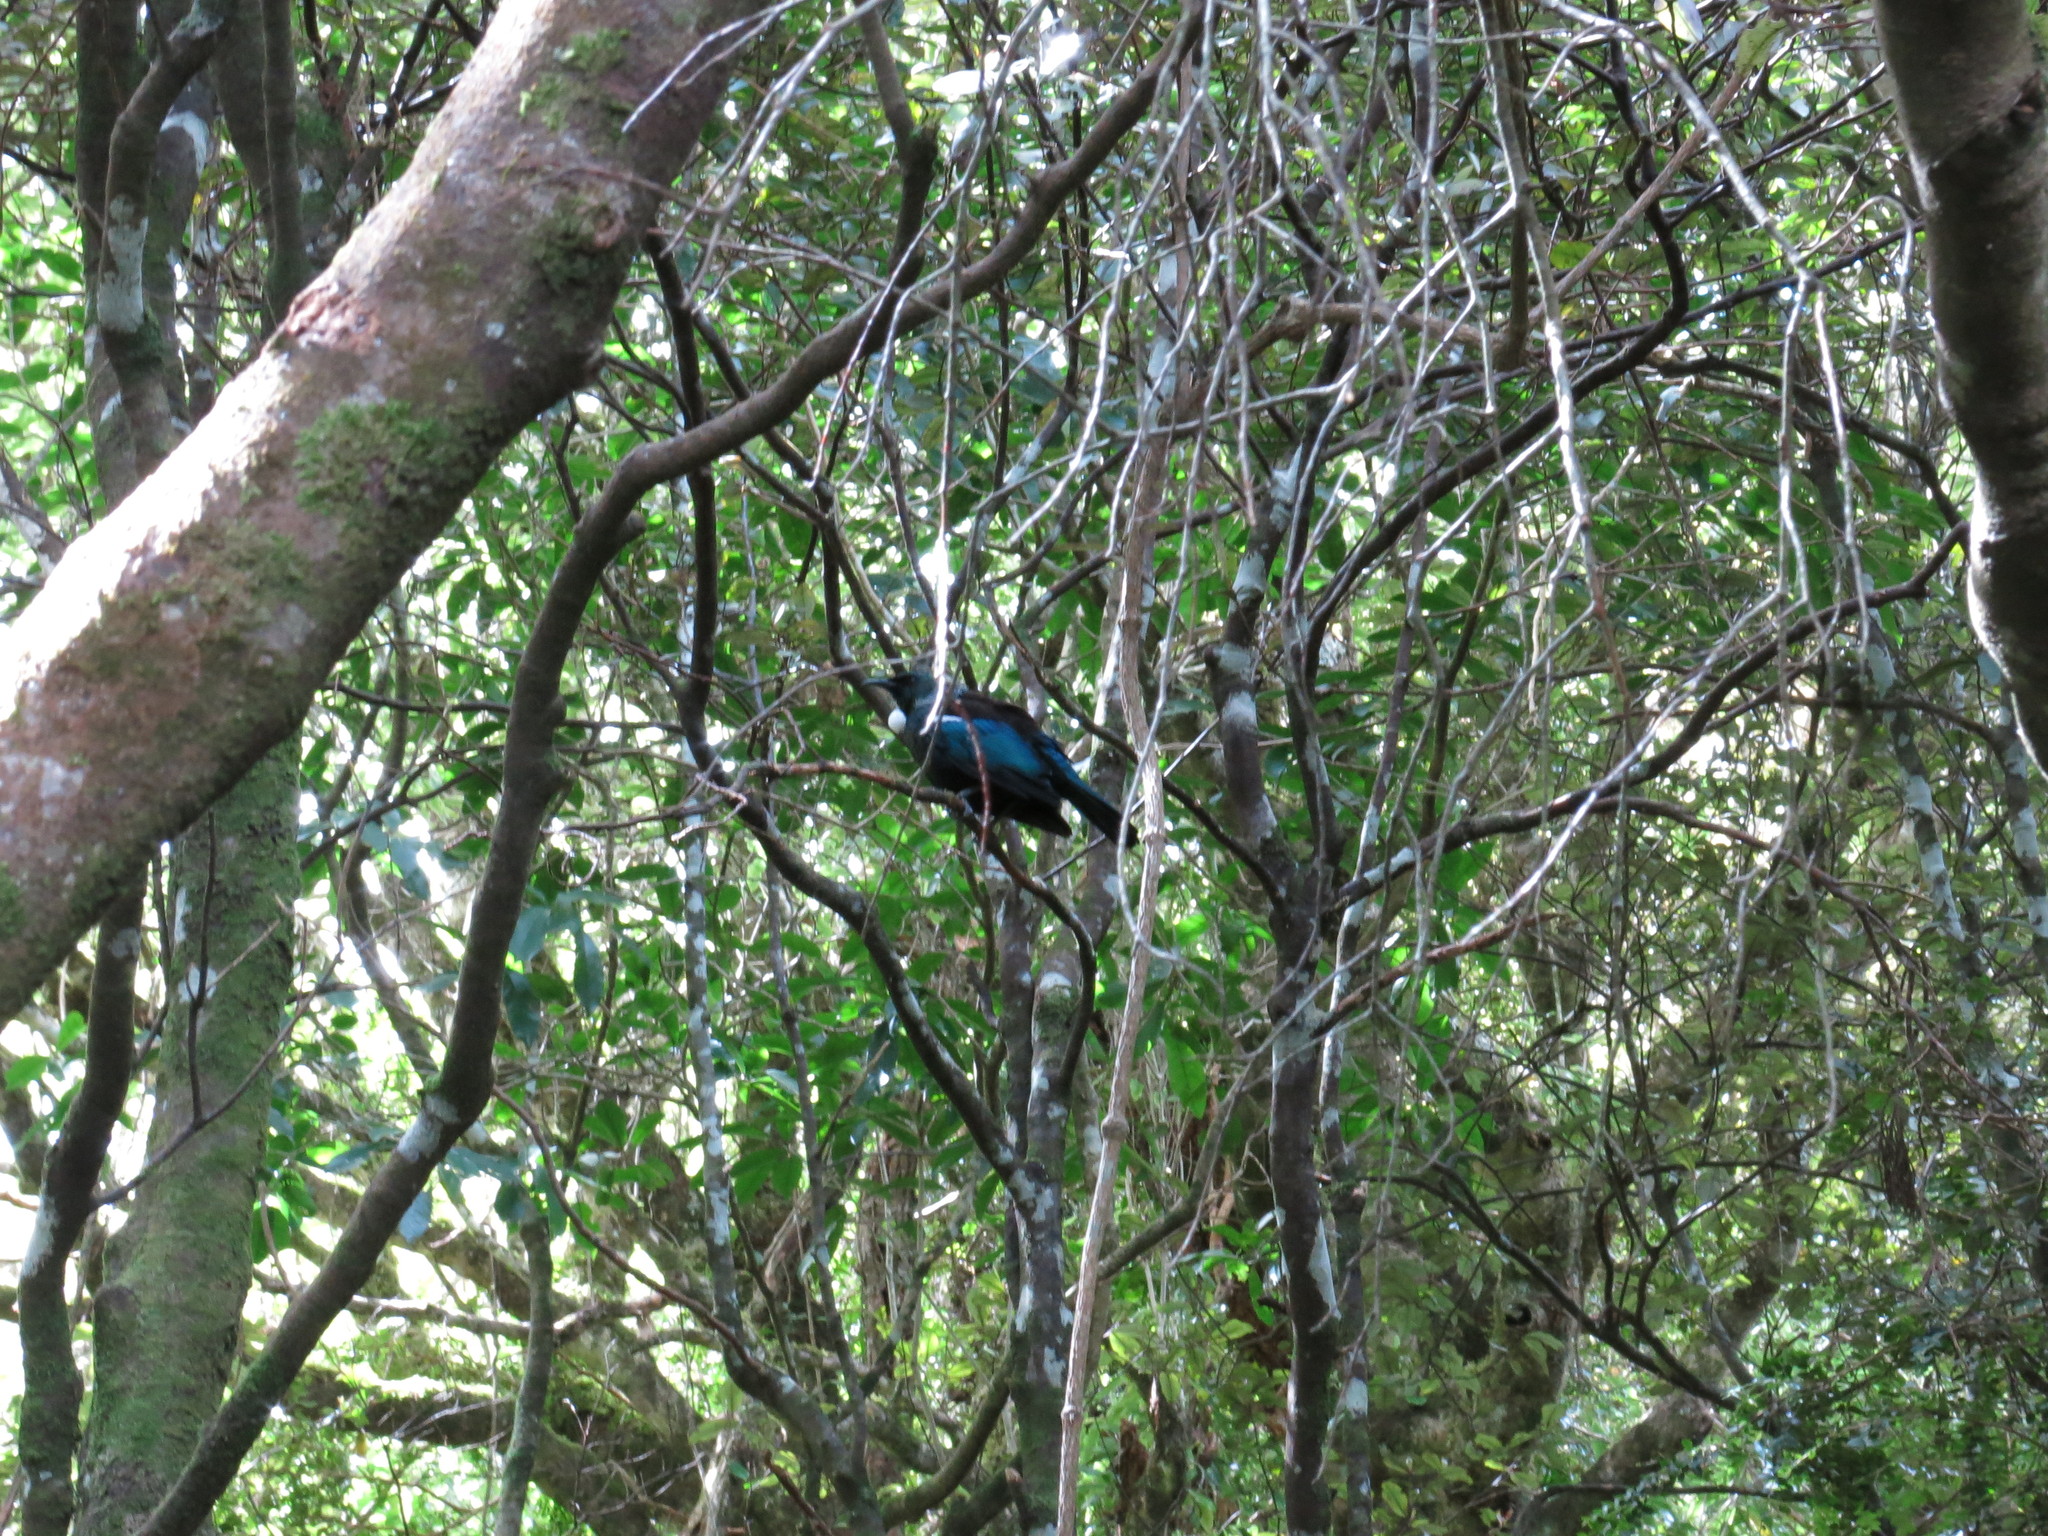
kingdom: Animalia
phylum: Chordata
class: Aves
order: Passeriformes
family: Meliphagidae
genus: Prosthemadera
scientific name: Prosthemadera novaeseelandiae
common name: Tui
